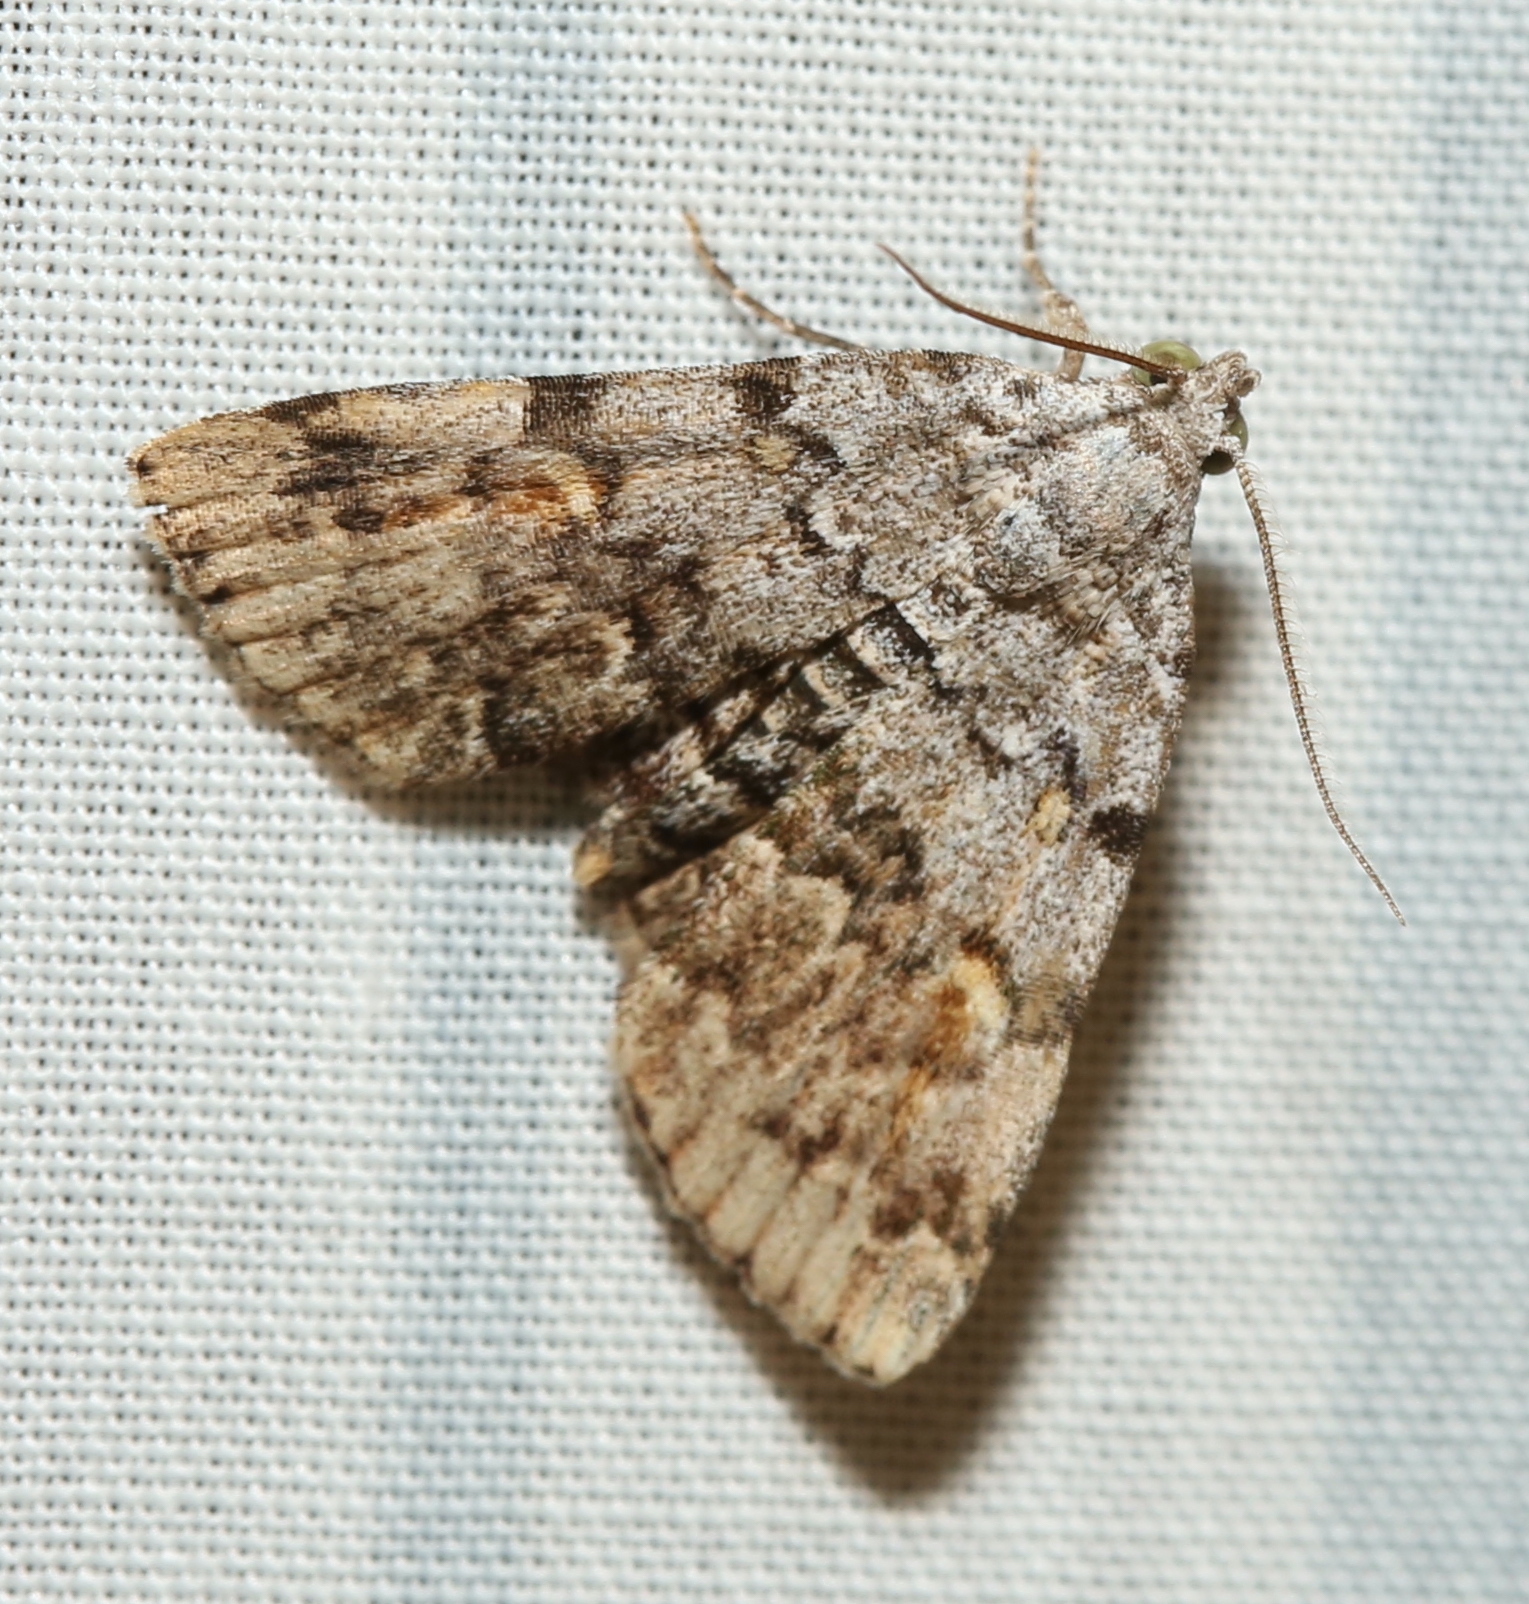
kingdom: Animalia
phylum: Arthropoda
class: Insecta
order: Lepidoptera
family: Erebidae
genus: Idia
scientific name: Idia americalis
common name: American idia moth
